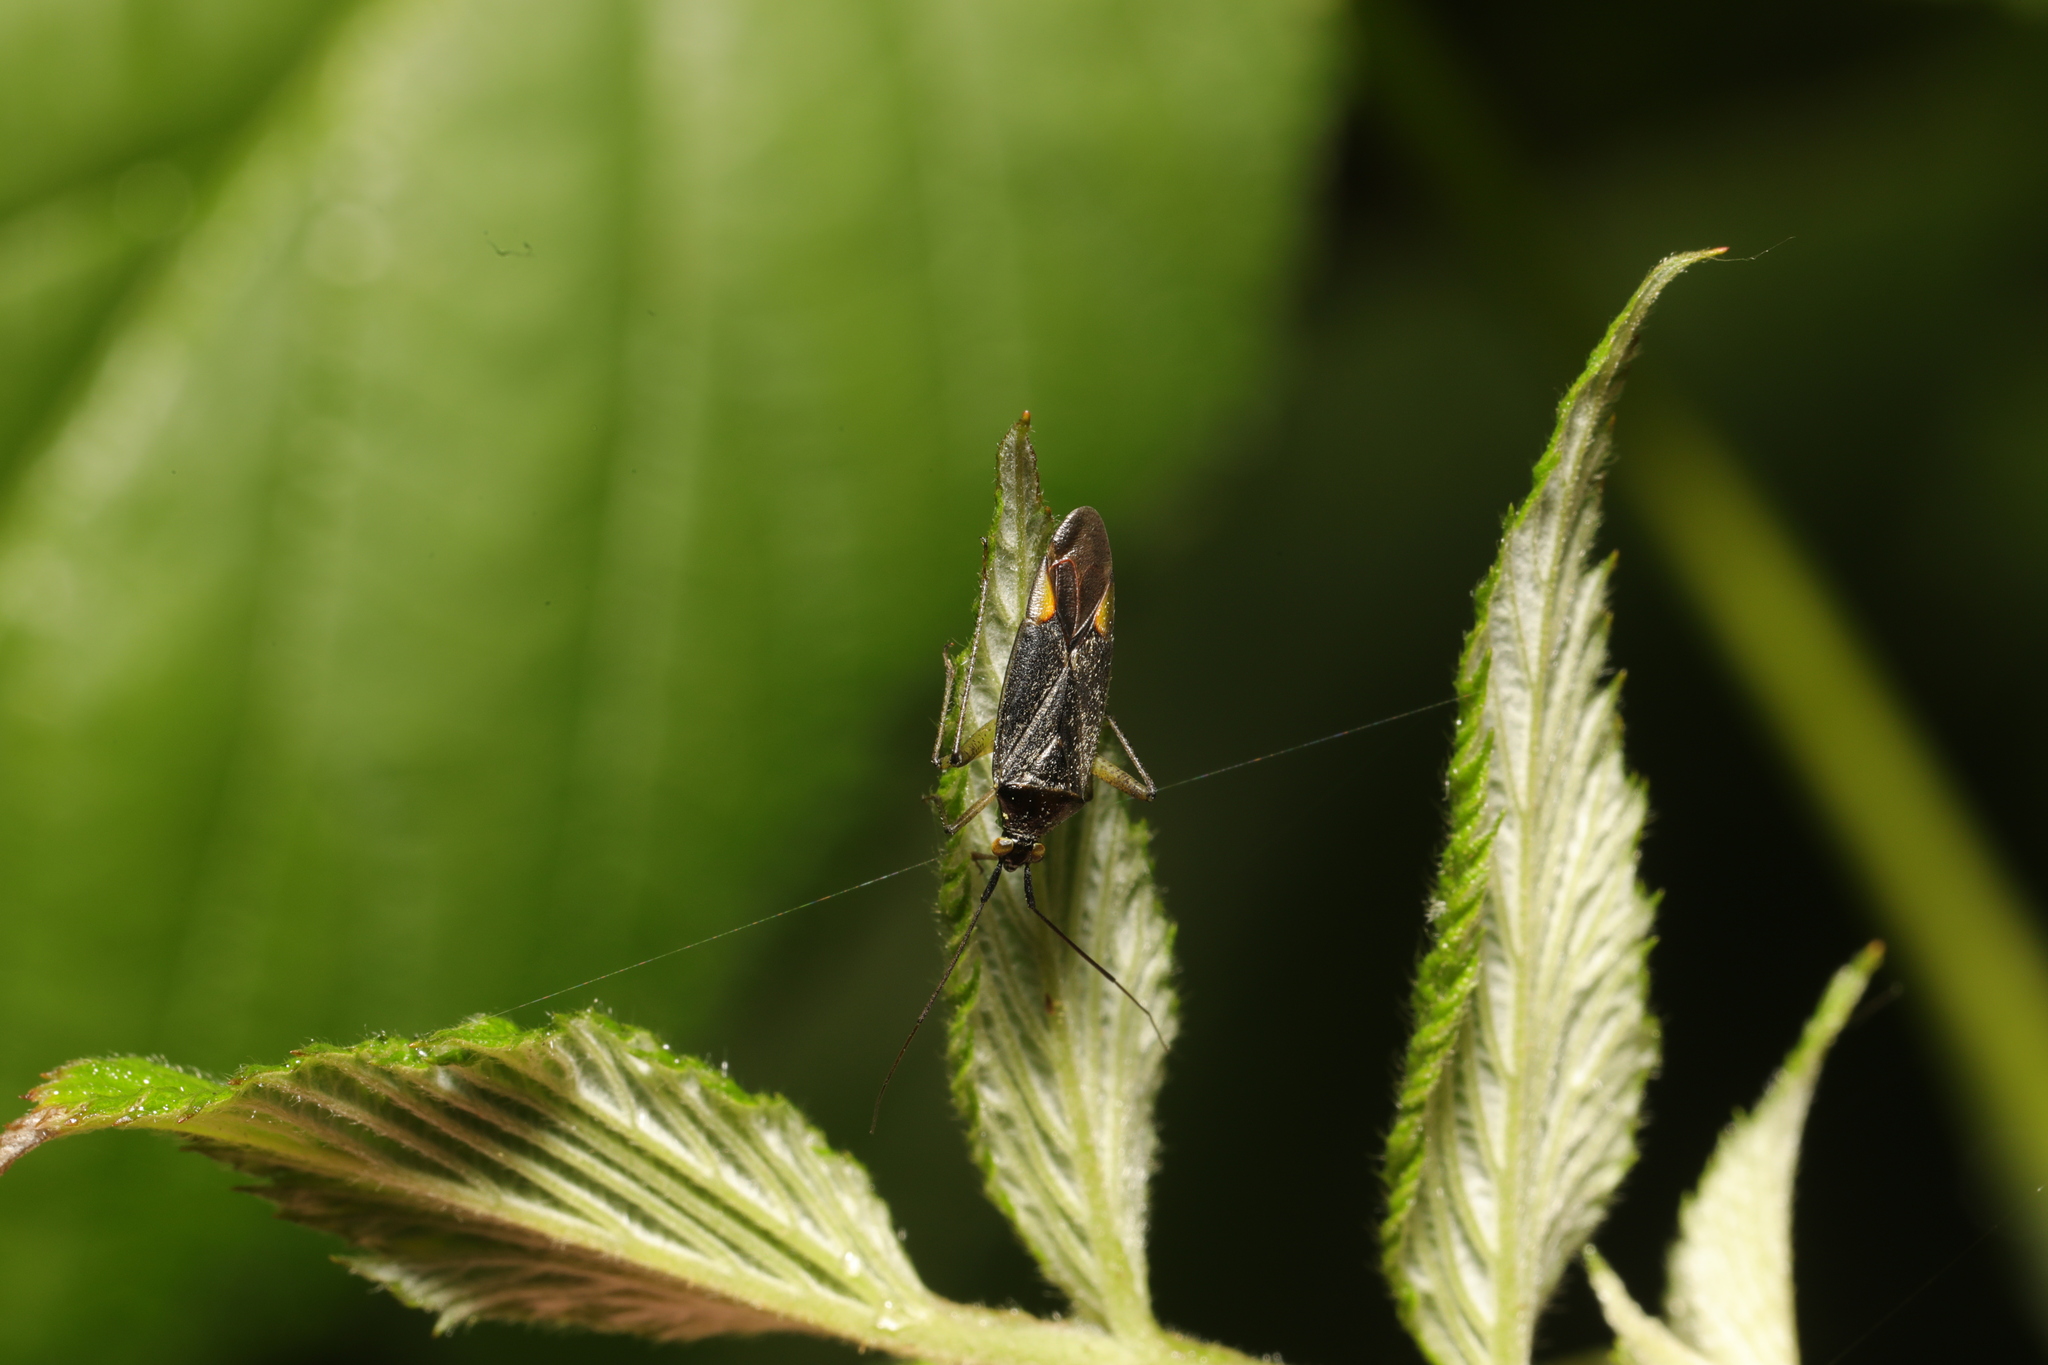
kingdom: Animalia
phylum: Arthropoda
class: Insecta
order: Hemiptera
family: Miridae
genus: Closterotomus
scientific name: Closterotomus trivialis
